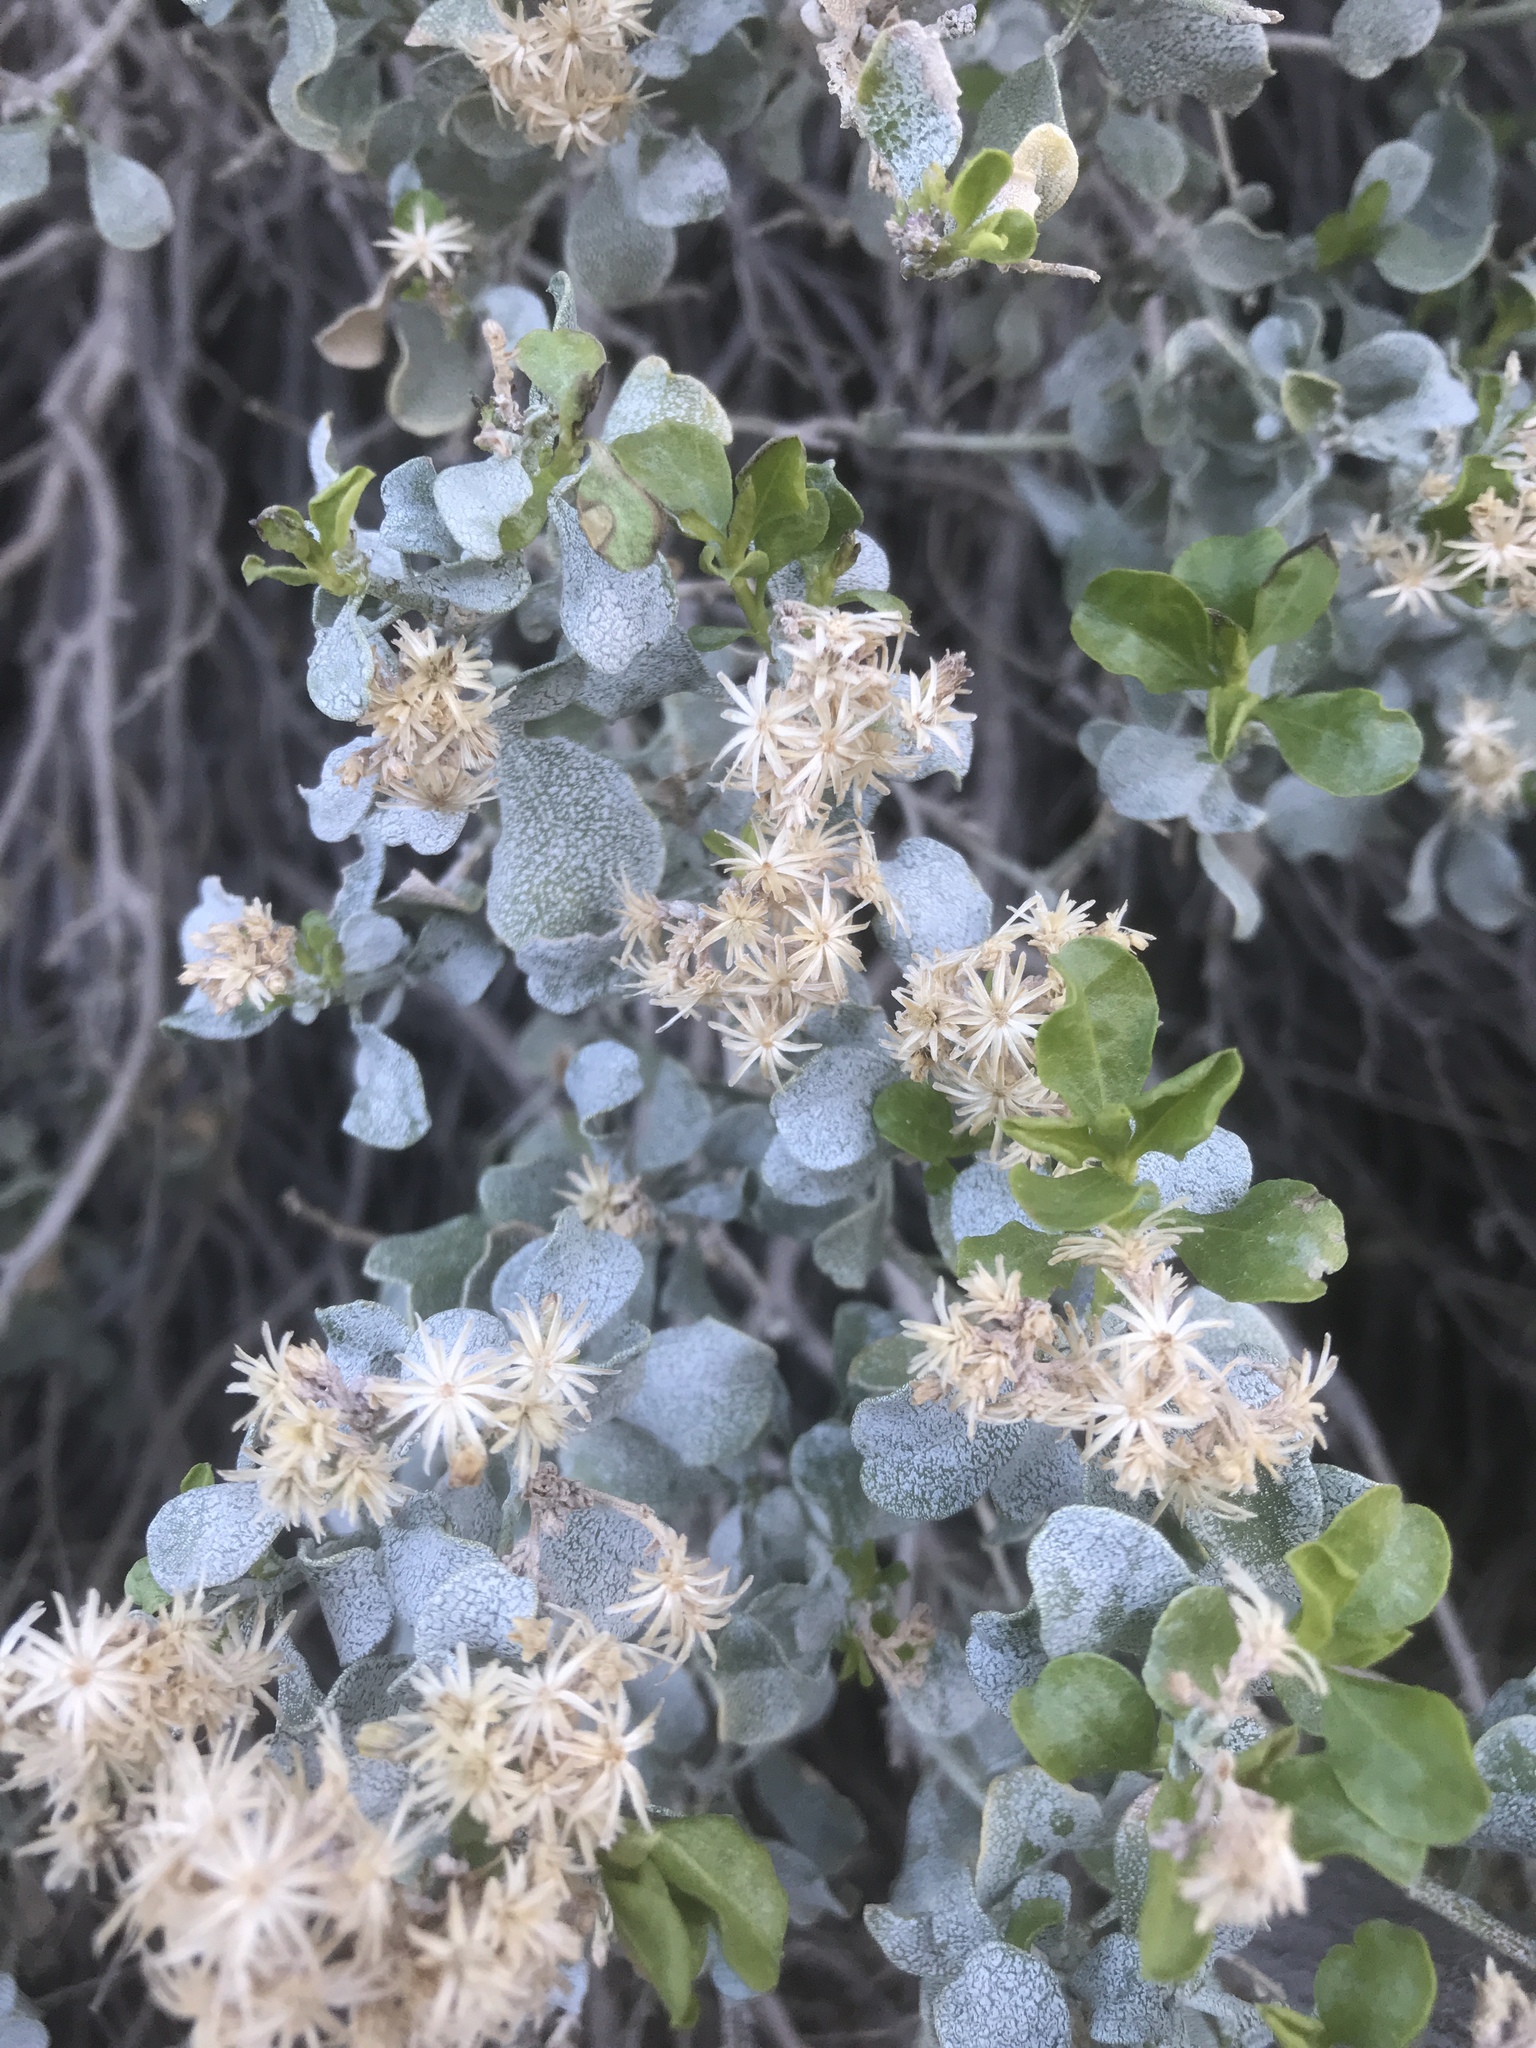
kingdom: Plantae
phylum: Tracheophyta
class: Magnoliopsida
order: Asterales
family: Asteraceae
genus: Ericameria
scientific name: Ericameria cuneata
